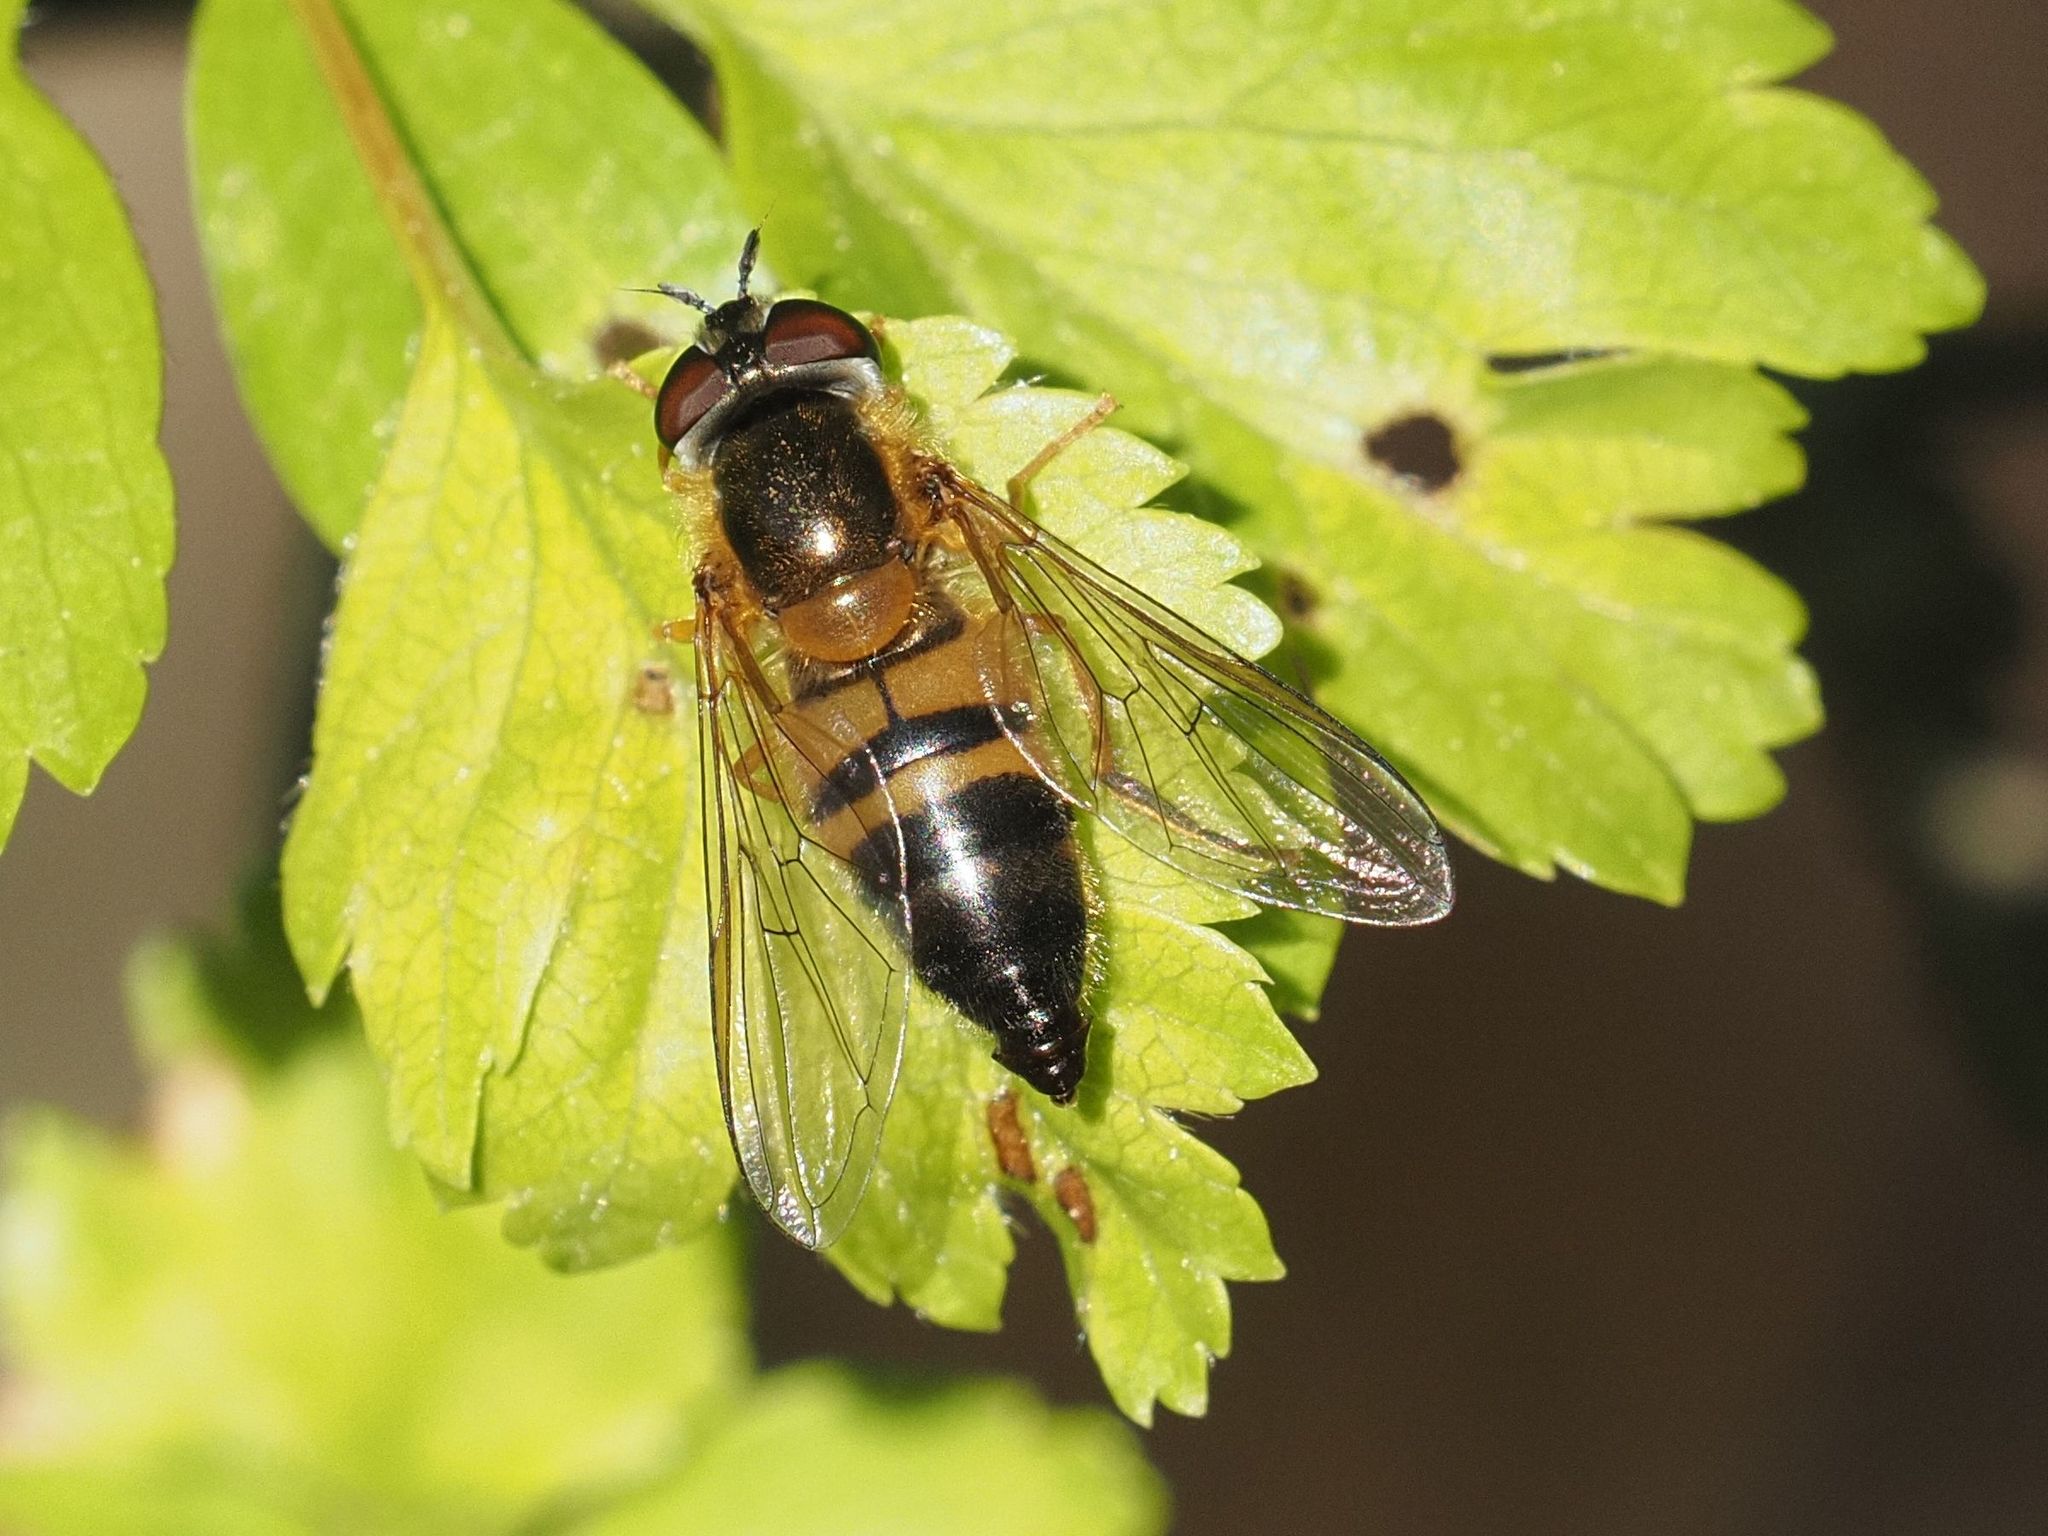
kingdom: Animalia
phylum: Arthropoda
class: Insecta
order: Diptera
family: Syrphidae
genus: Epistrophe
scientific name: Epistrophe eligans
